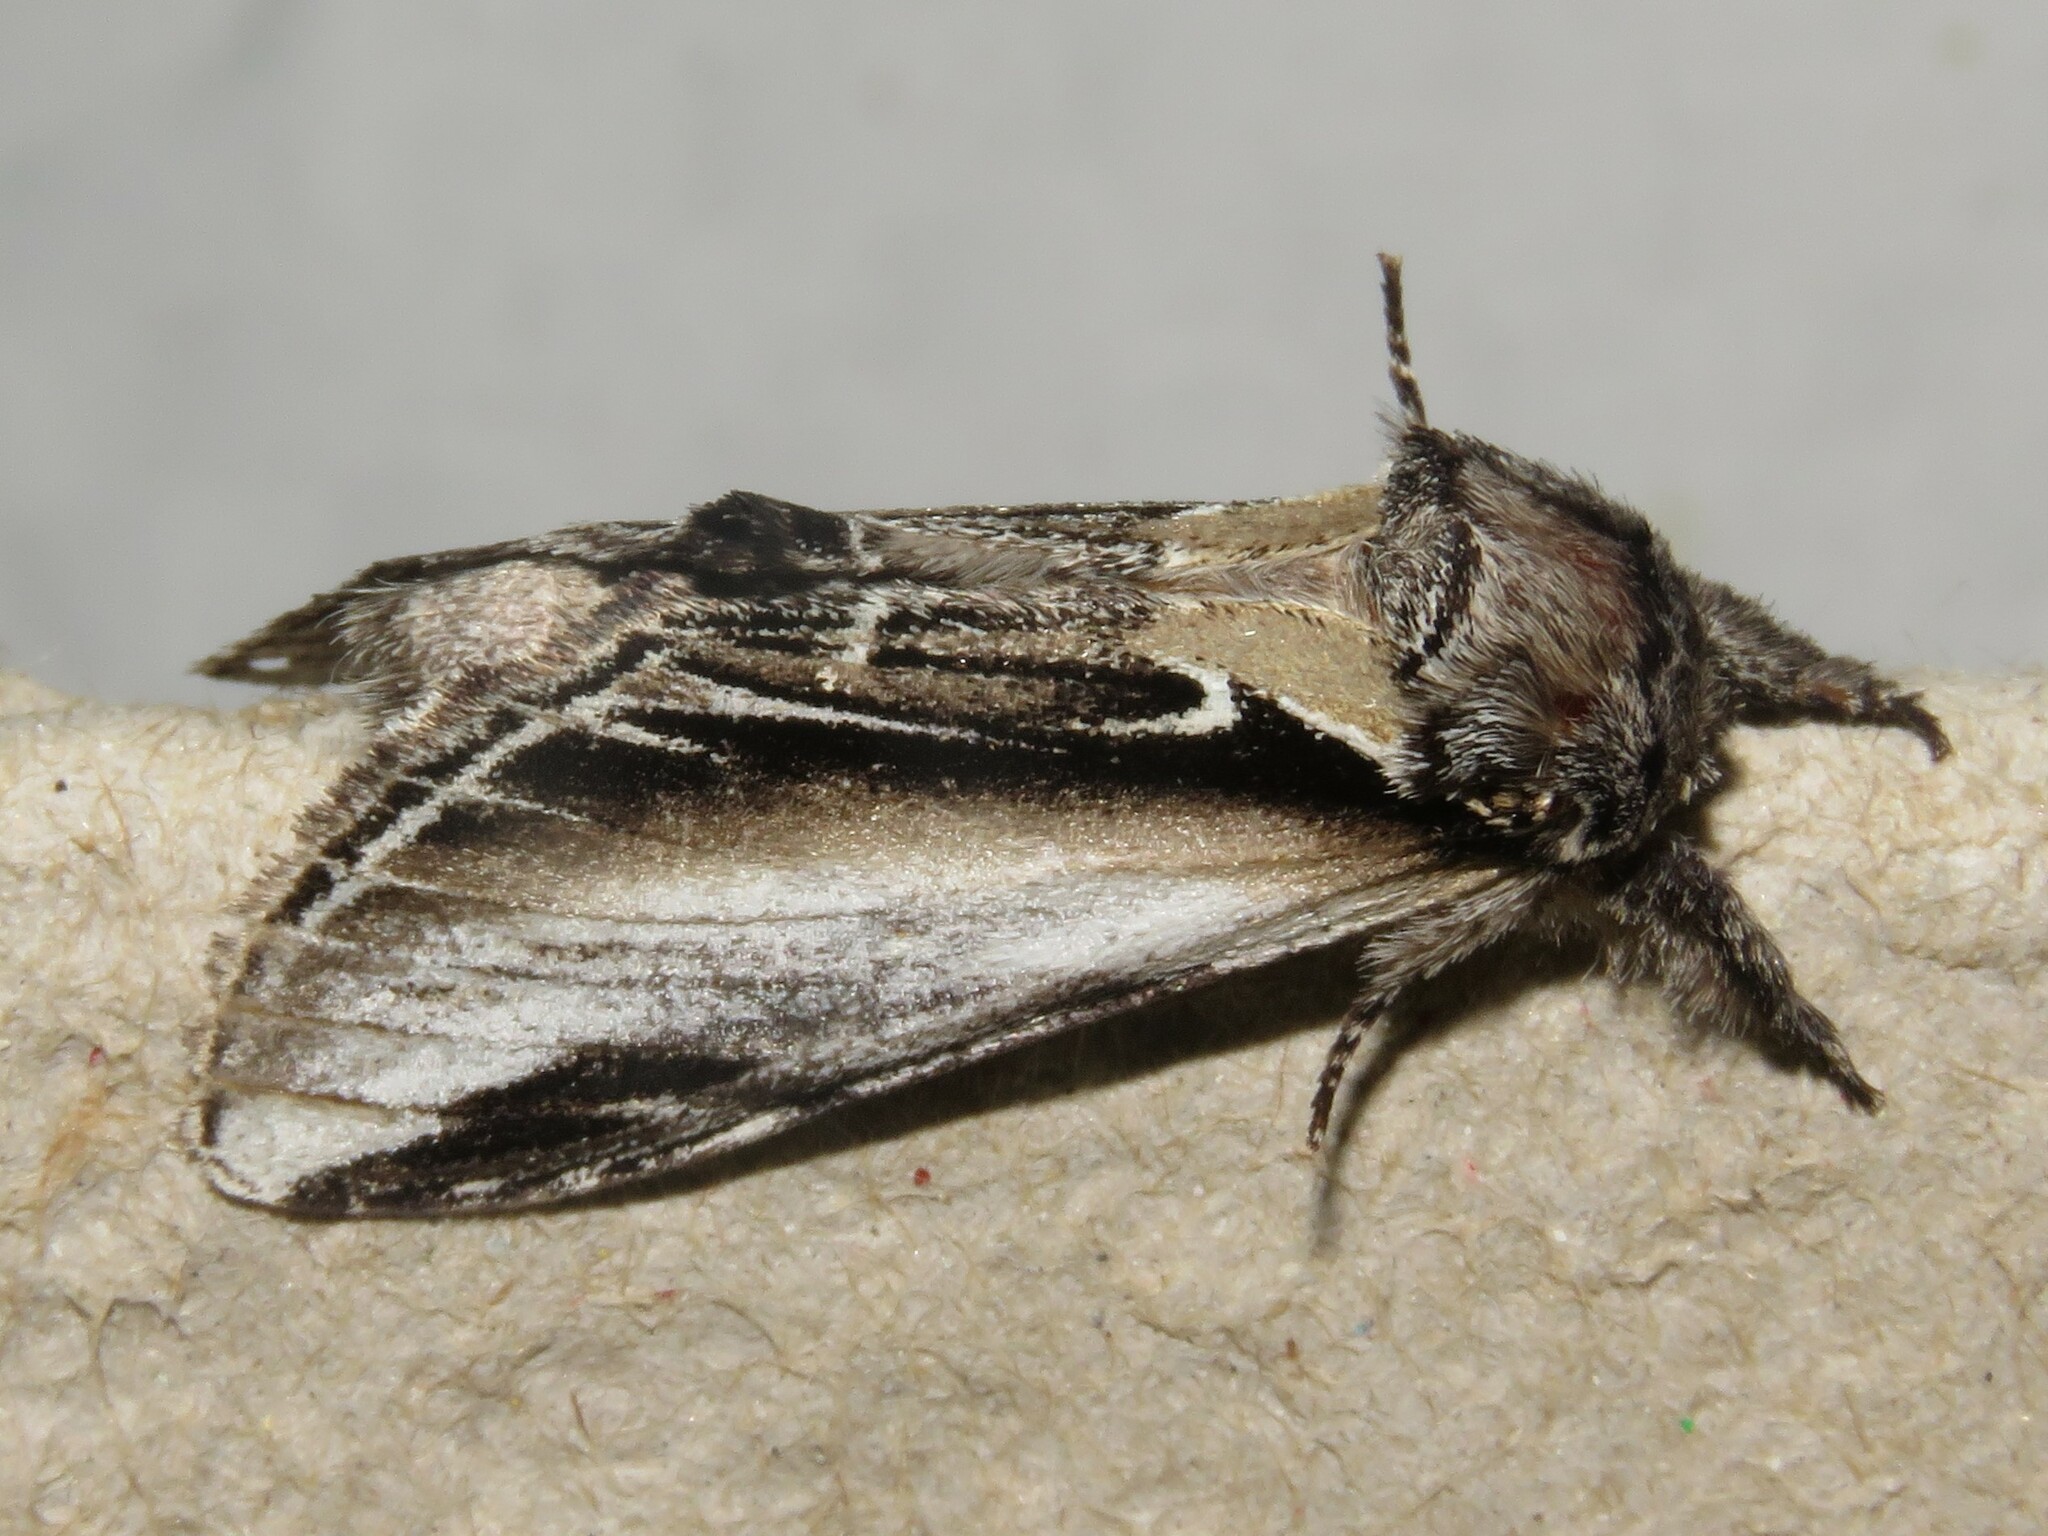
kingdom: Animalia
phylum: Arthropoda
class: Insecta
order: Lepidoptera
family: Notodontidae
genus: Pheosia
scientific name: Pheosia rimosa
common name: Black-rimmed prominent
